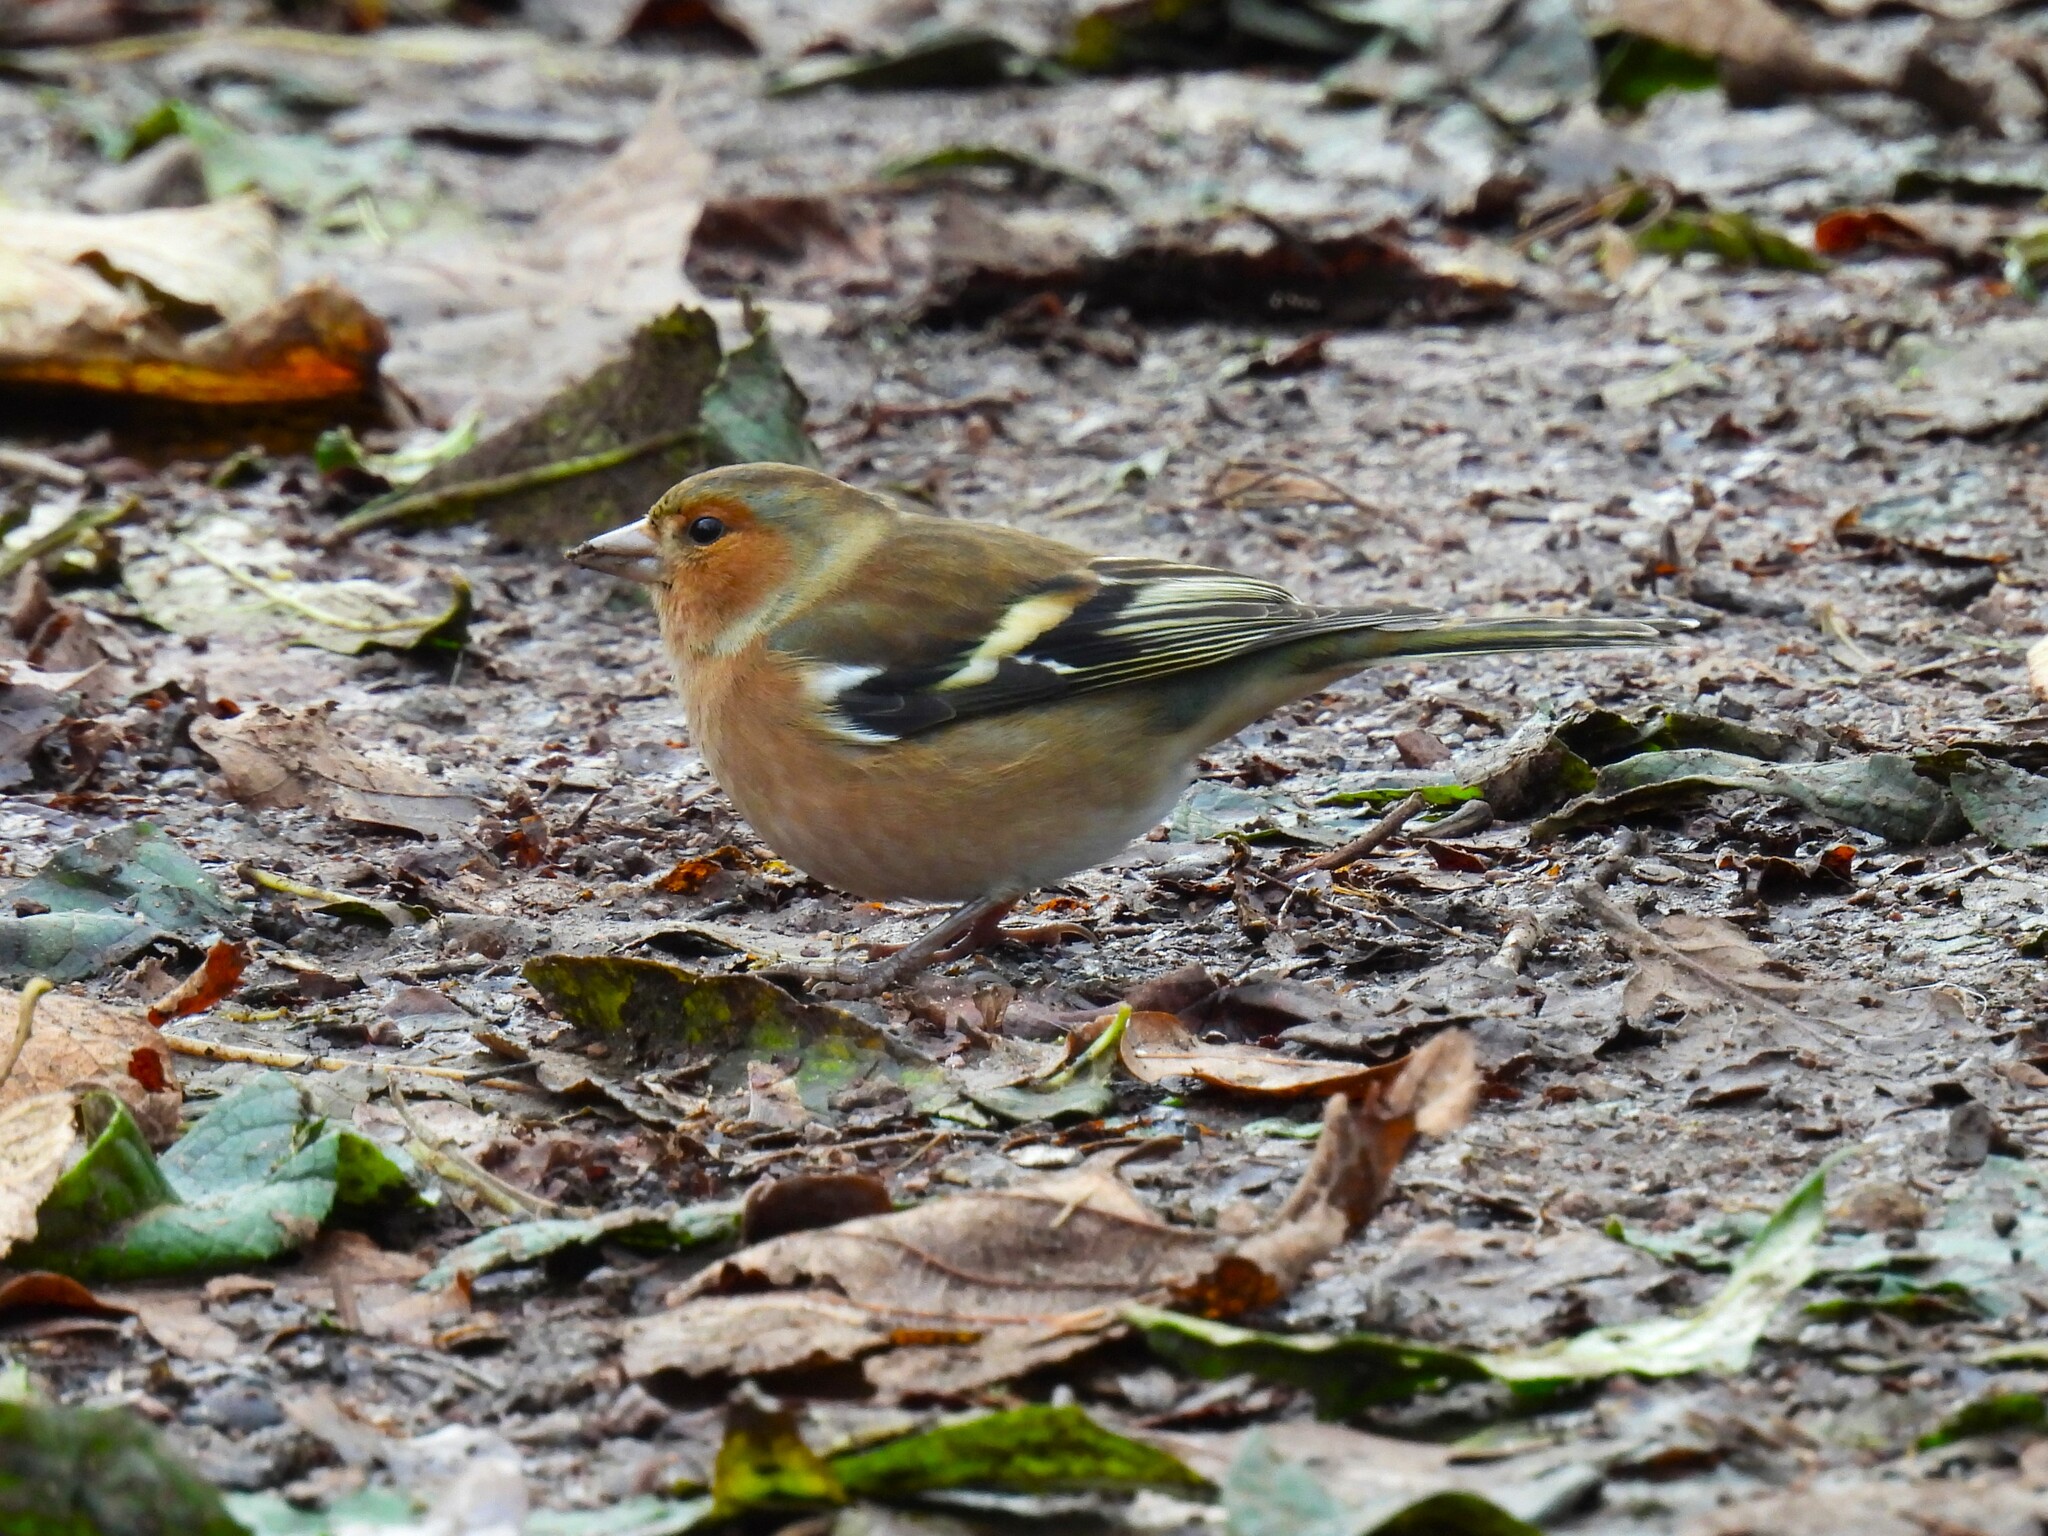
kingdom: Animalia
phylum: Chordata
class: Aves
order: Passeriformes
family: Fringillidae
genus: Fringilla
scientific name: Fringilla coelebs
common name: Common chaffinch
